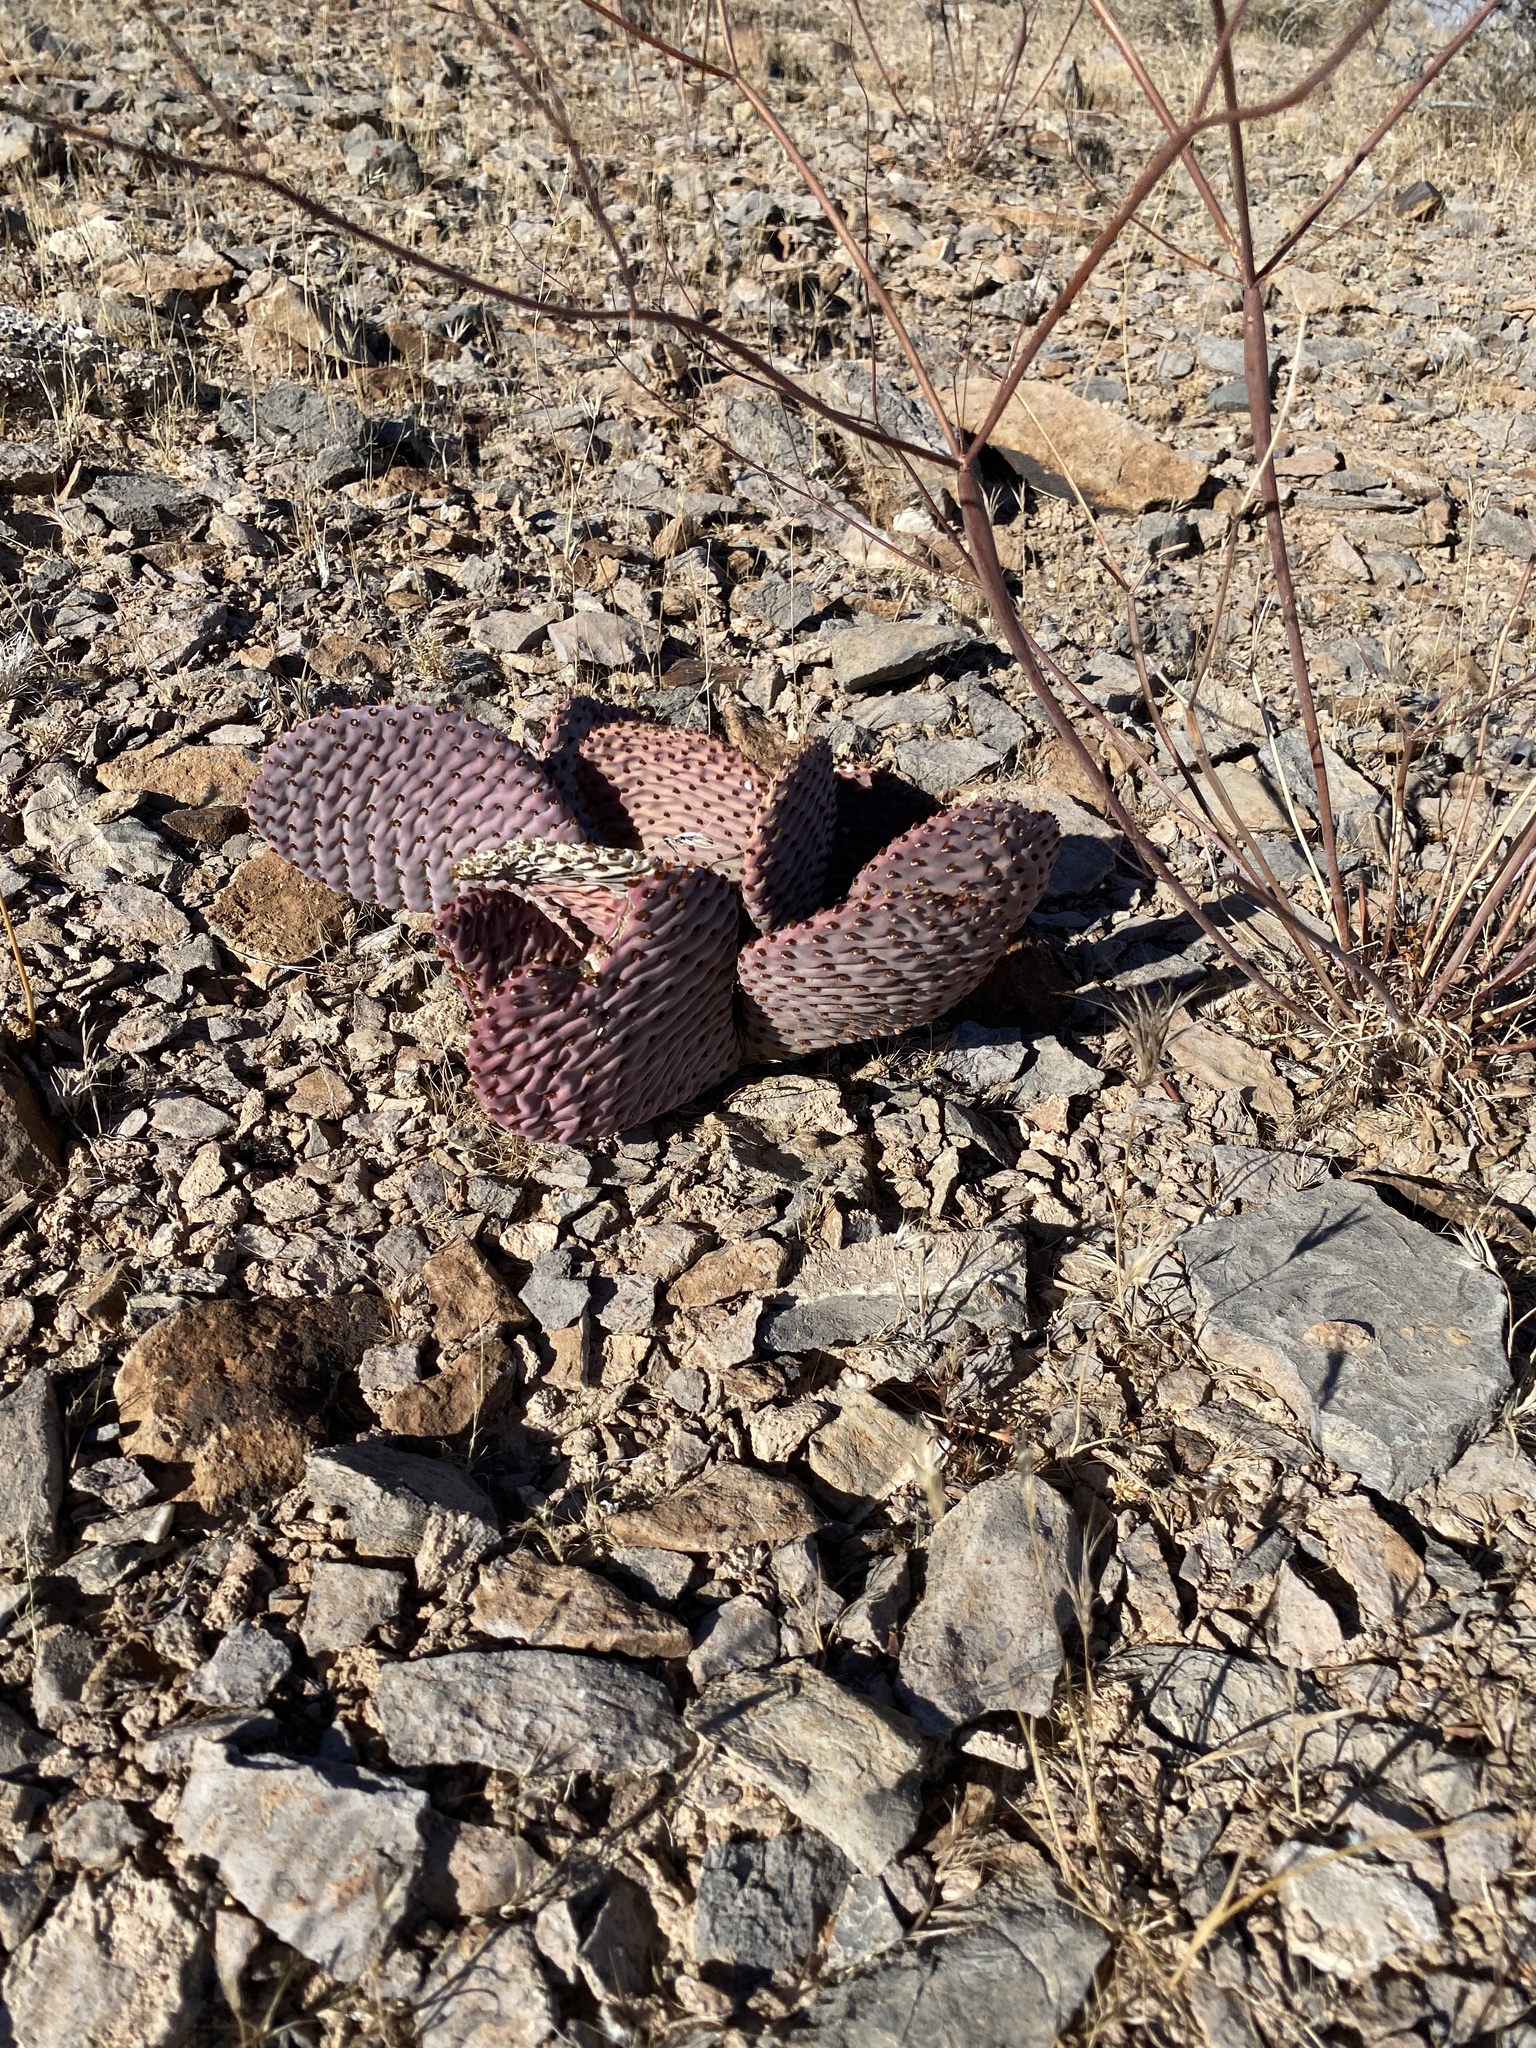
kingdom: Plantae
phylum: Tracheophyta
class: Magnoliopsida
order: Caryophyllales
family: Cactaceae
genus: Opuntia
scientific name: Opuntia basilaris
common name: Beavertail prickly-pear
